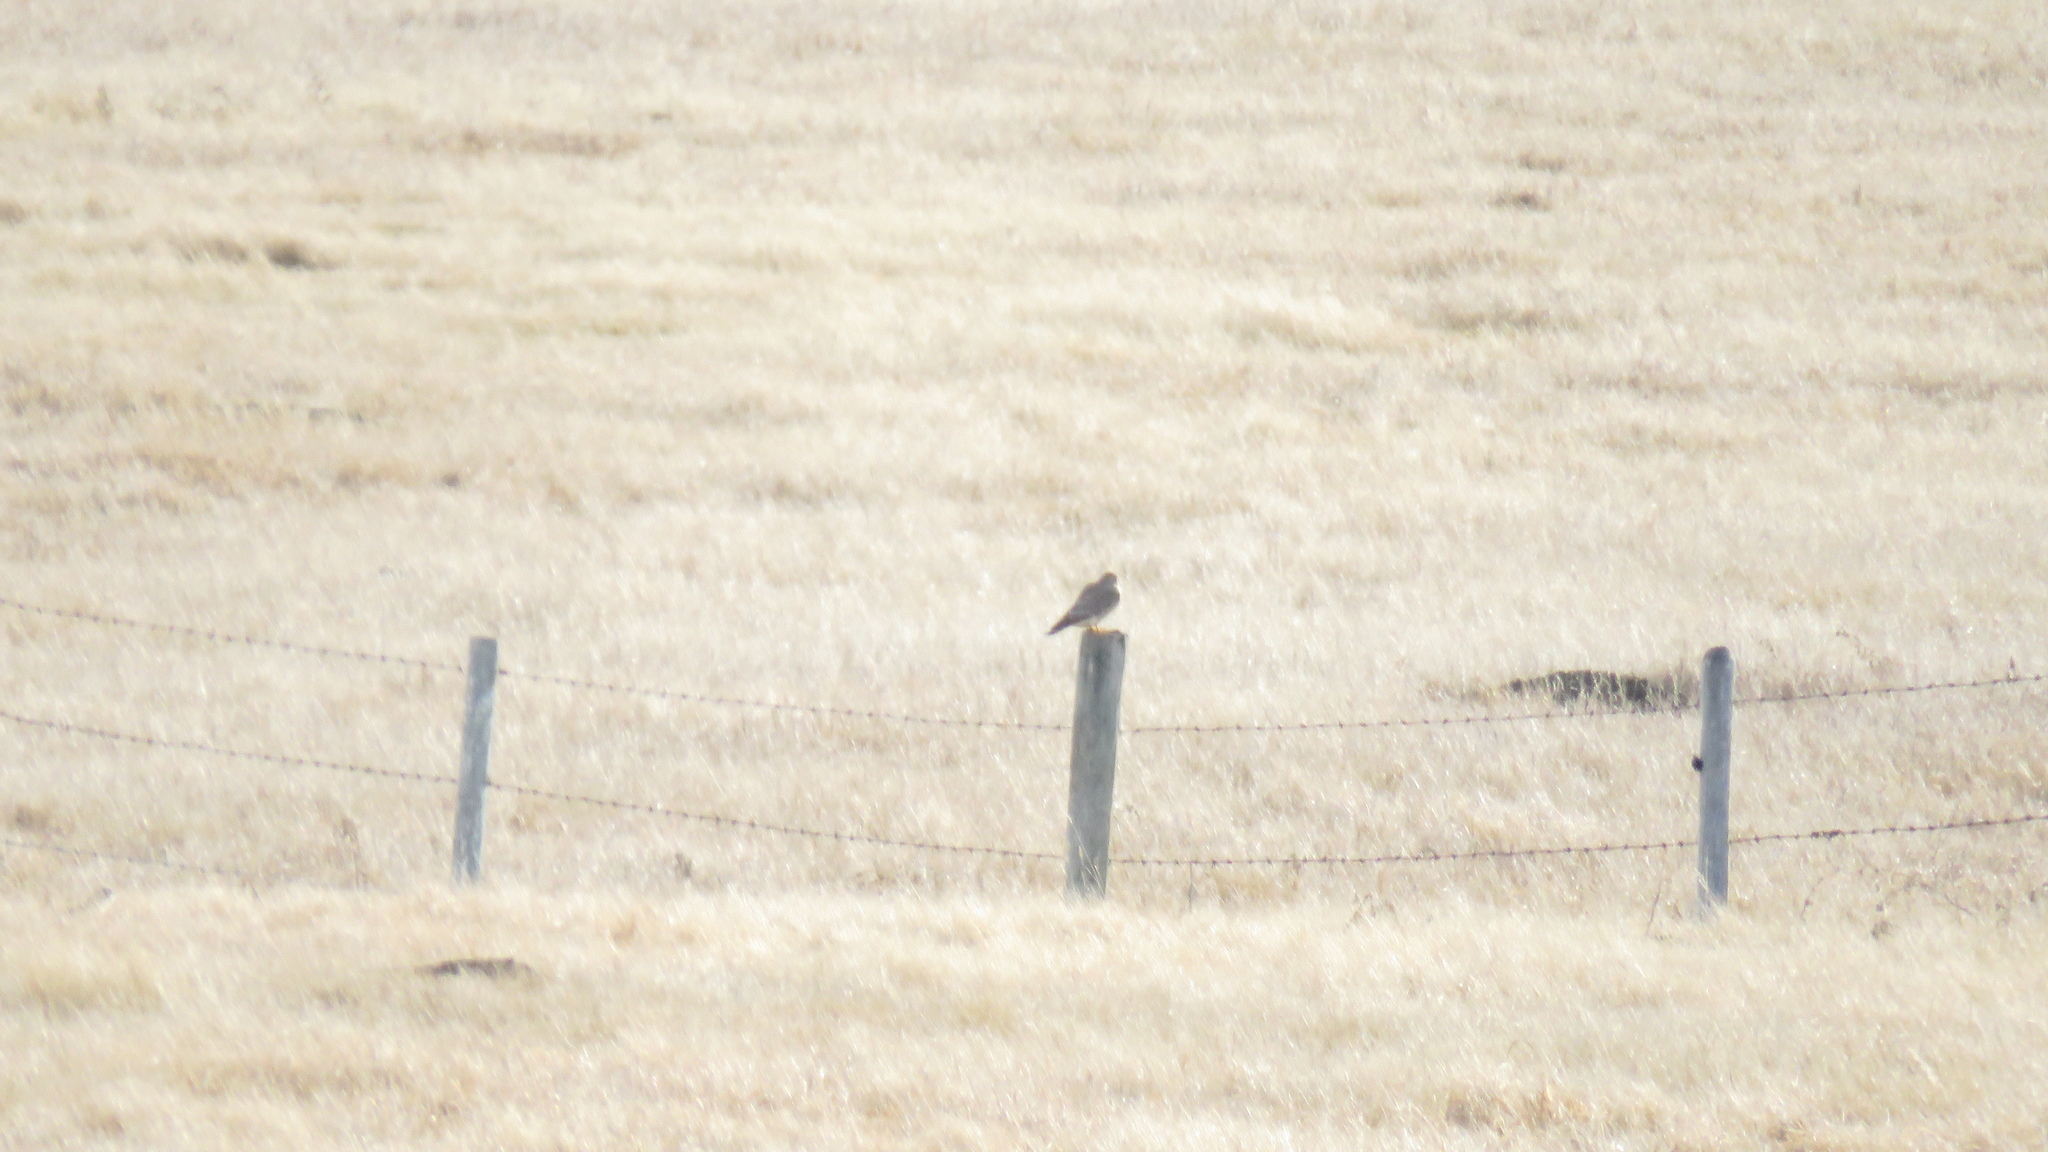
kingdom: Animalia
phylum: Chordata
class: Aves
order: Falconiformes
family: Falconidae
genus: Falco
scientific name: Falco mexicanus
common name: Prairie falcon
